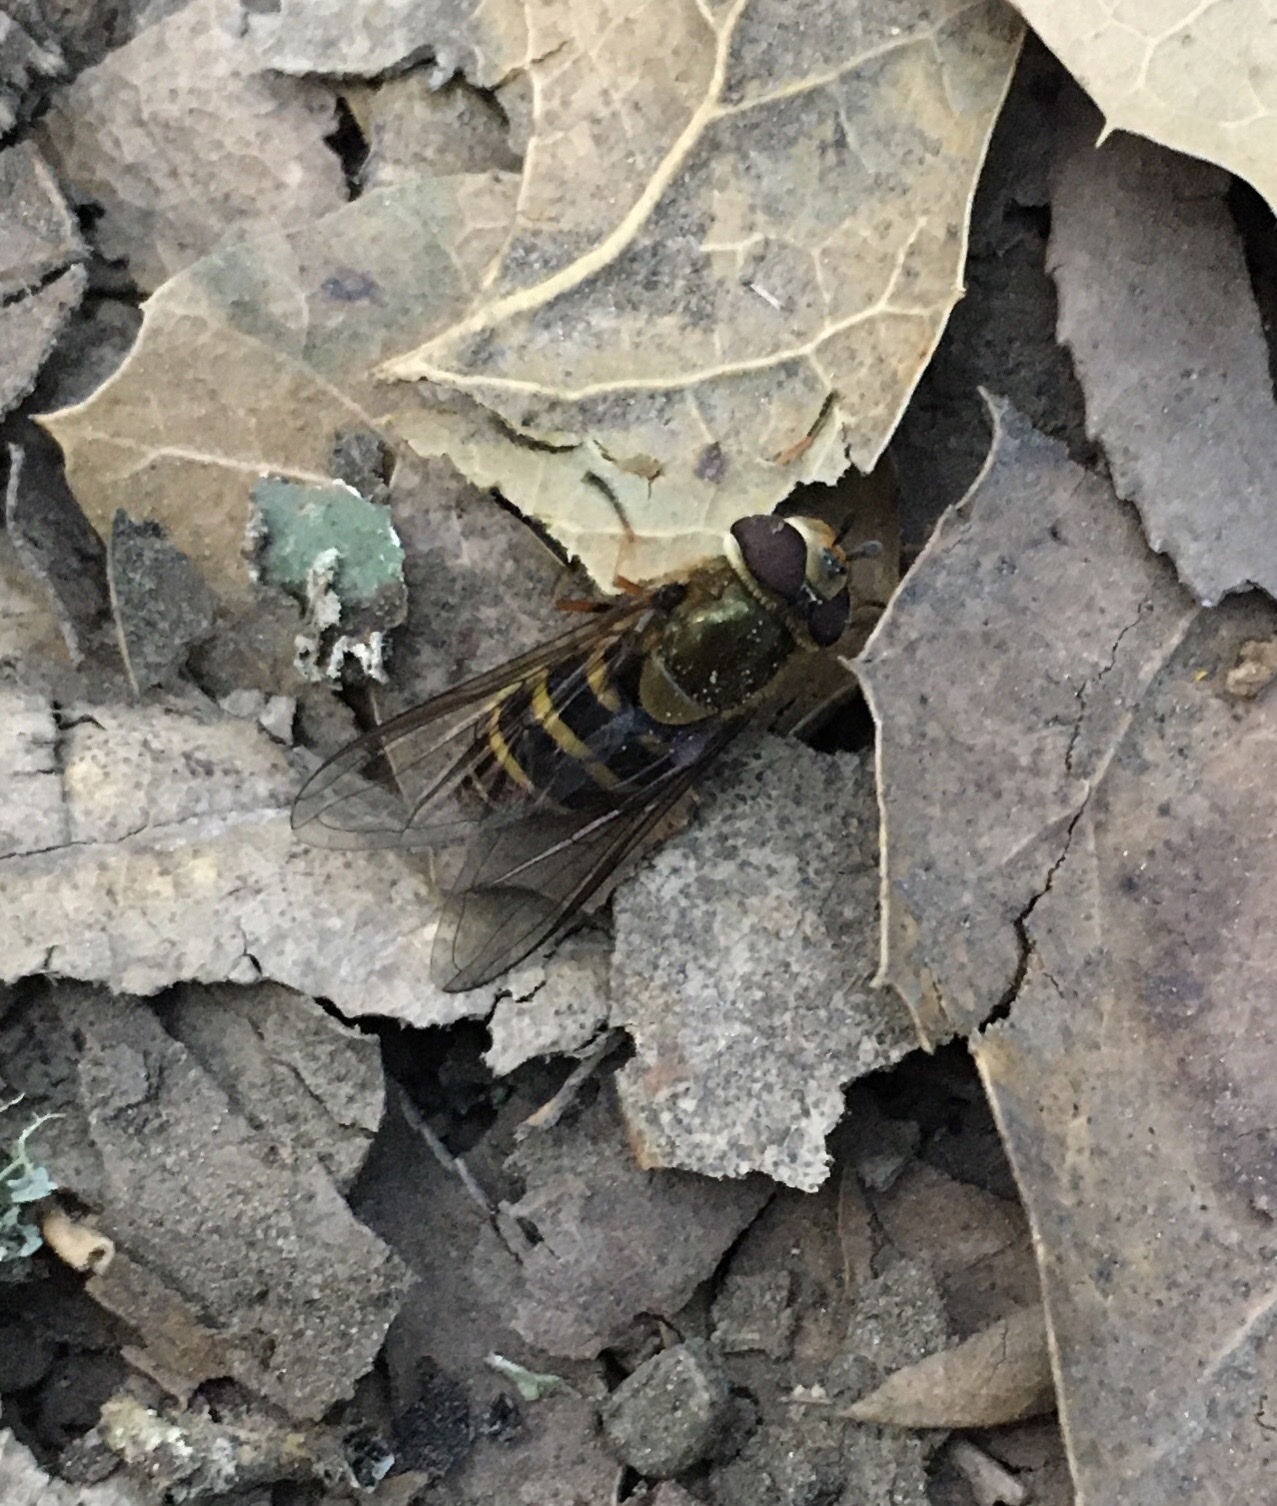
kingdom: Animalia
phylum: Arthropoda
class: Insecta
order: Diptera
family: Syrphidae
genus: Syrphus
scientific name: Syrphus opinator
